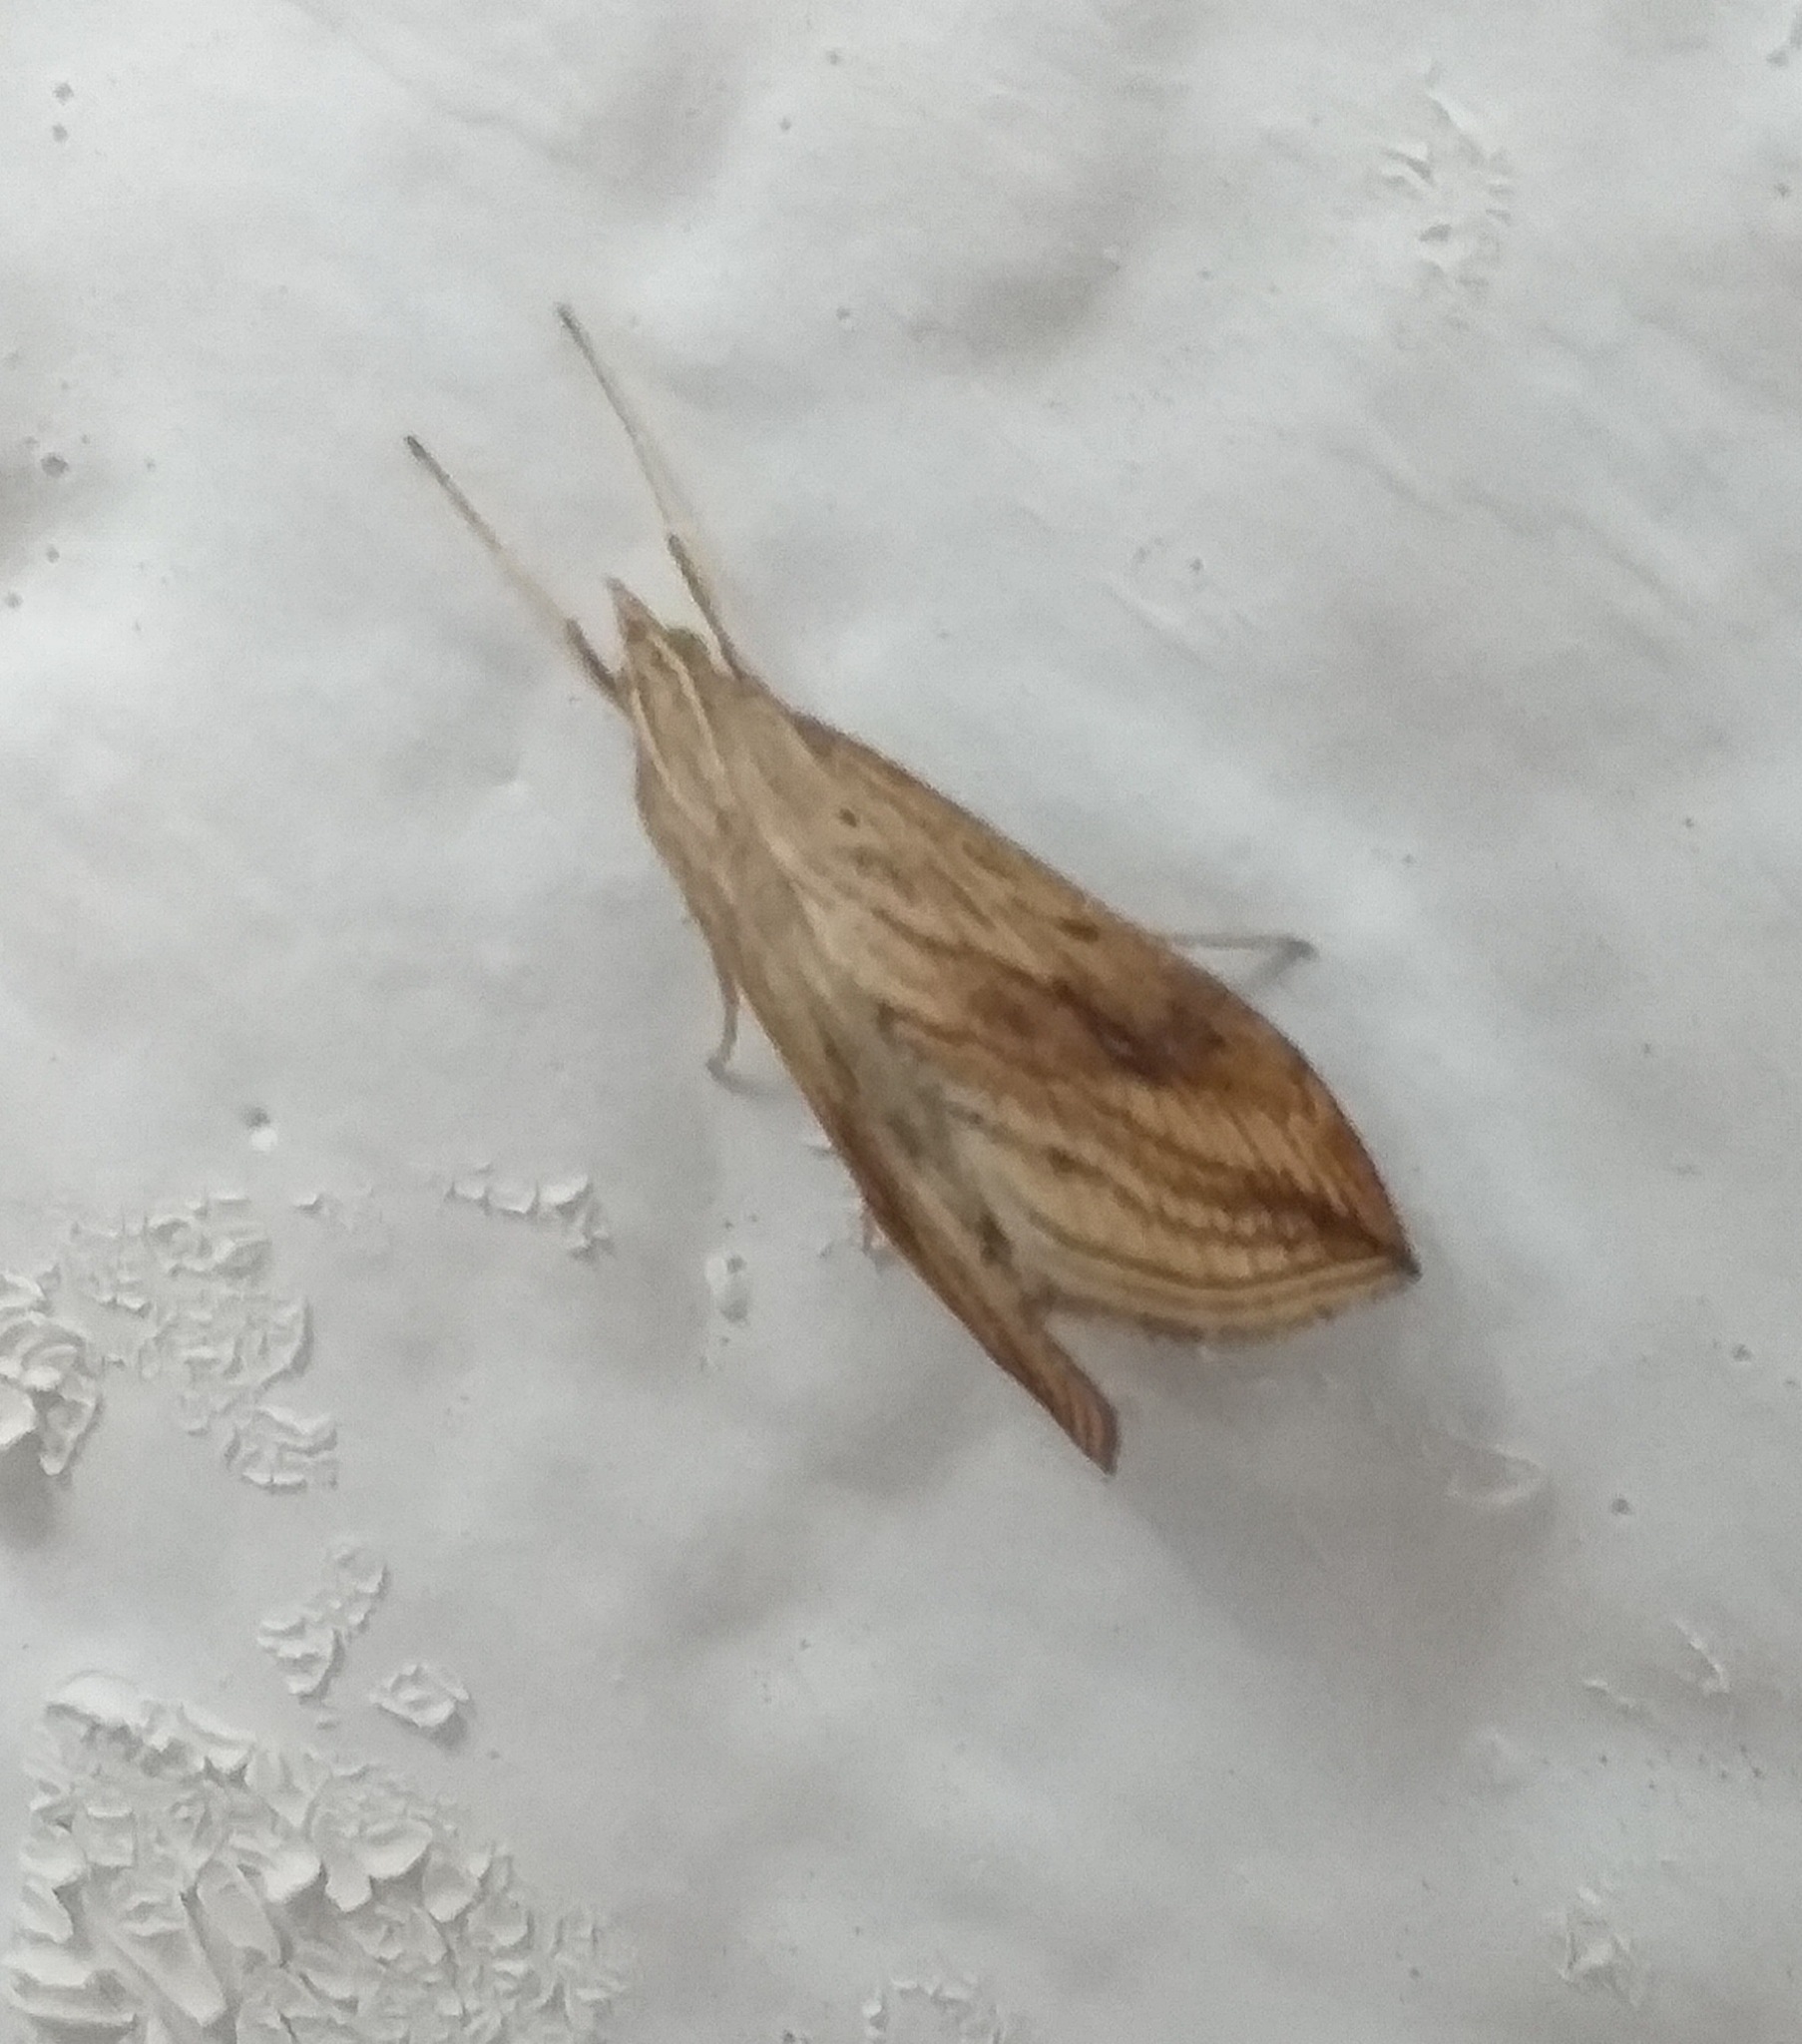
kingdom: Animalia
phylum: Arthropoda
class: Insecta
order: Lepidoptera
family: Crambidae
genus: Evergestis
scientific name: Evergestis forficalis
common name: Garden pebble
